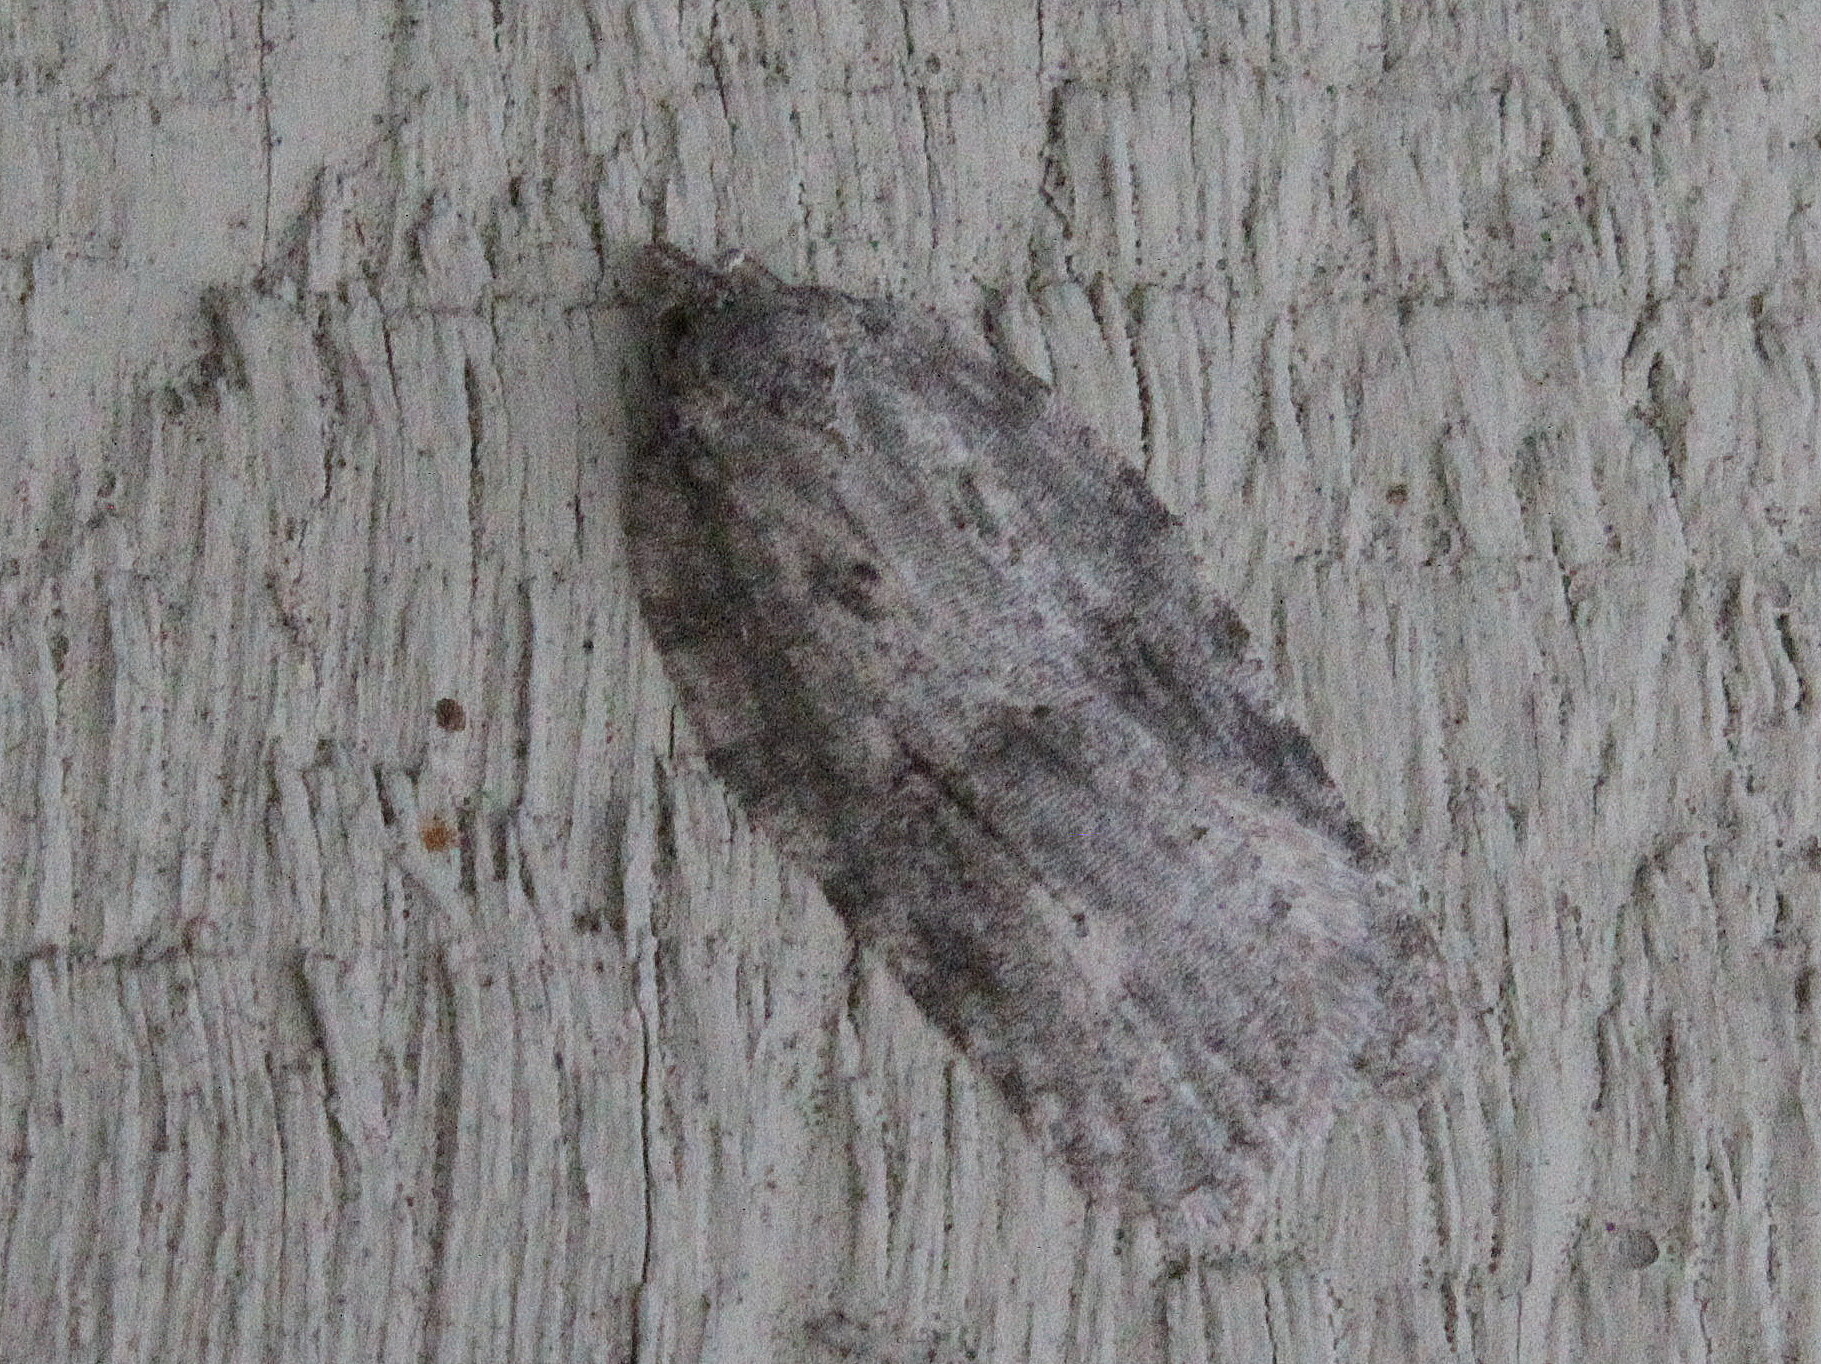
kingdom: Animalia
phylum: Arthropoda
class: Insecta
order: Lepidoptera
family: Tortricidae
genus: Acleris
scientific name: Acleris nigrolinea
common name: Black-lined acleris
